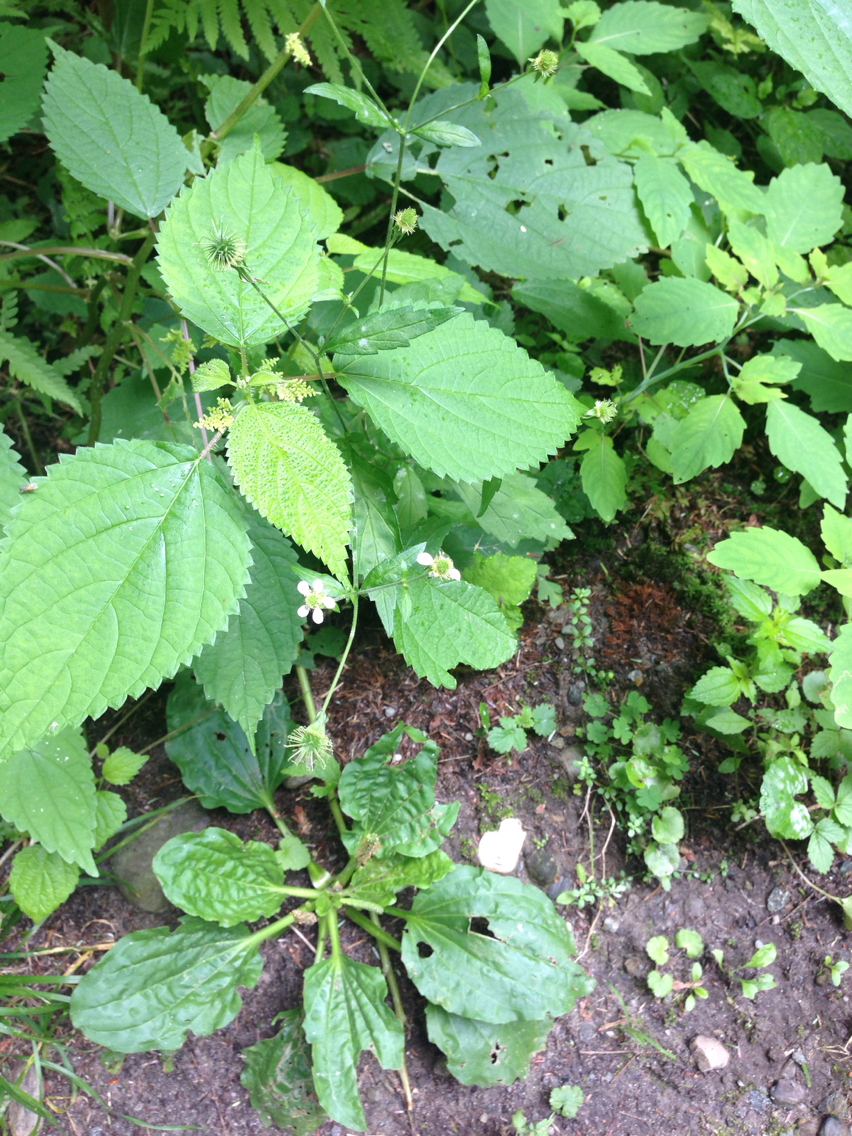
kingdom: Plantae
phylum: Tracheophyta
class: Magnoliopsida
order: Rosales
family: Rosaceae
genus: Geum
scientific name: Geum canadense
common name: White avens
